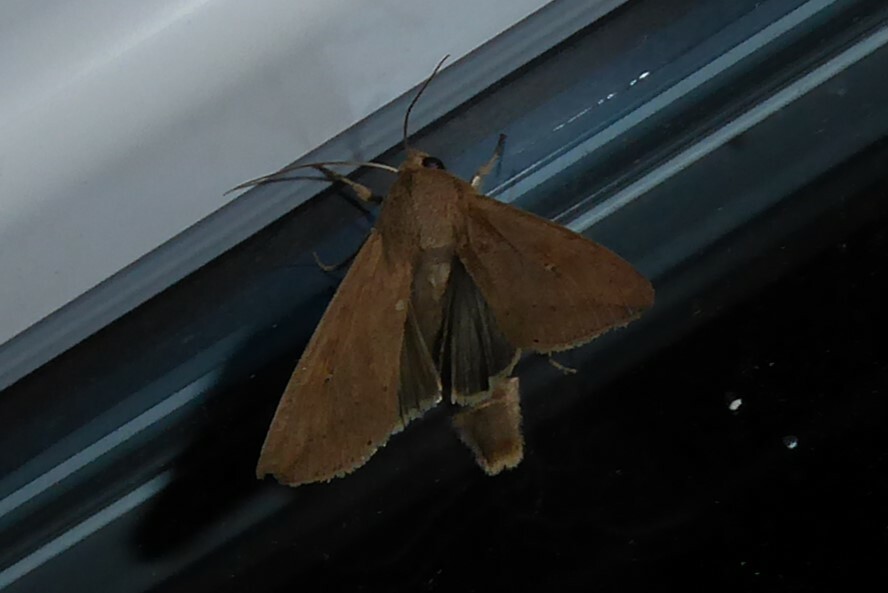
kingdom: Animalia
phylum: Arthropoda
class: Insecta
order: Lepidoptera
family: Noctuidae
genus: Mythimna
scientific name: Mythimna separata
